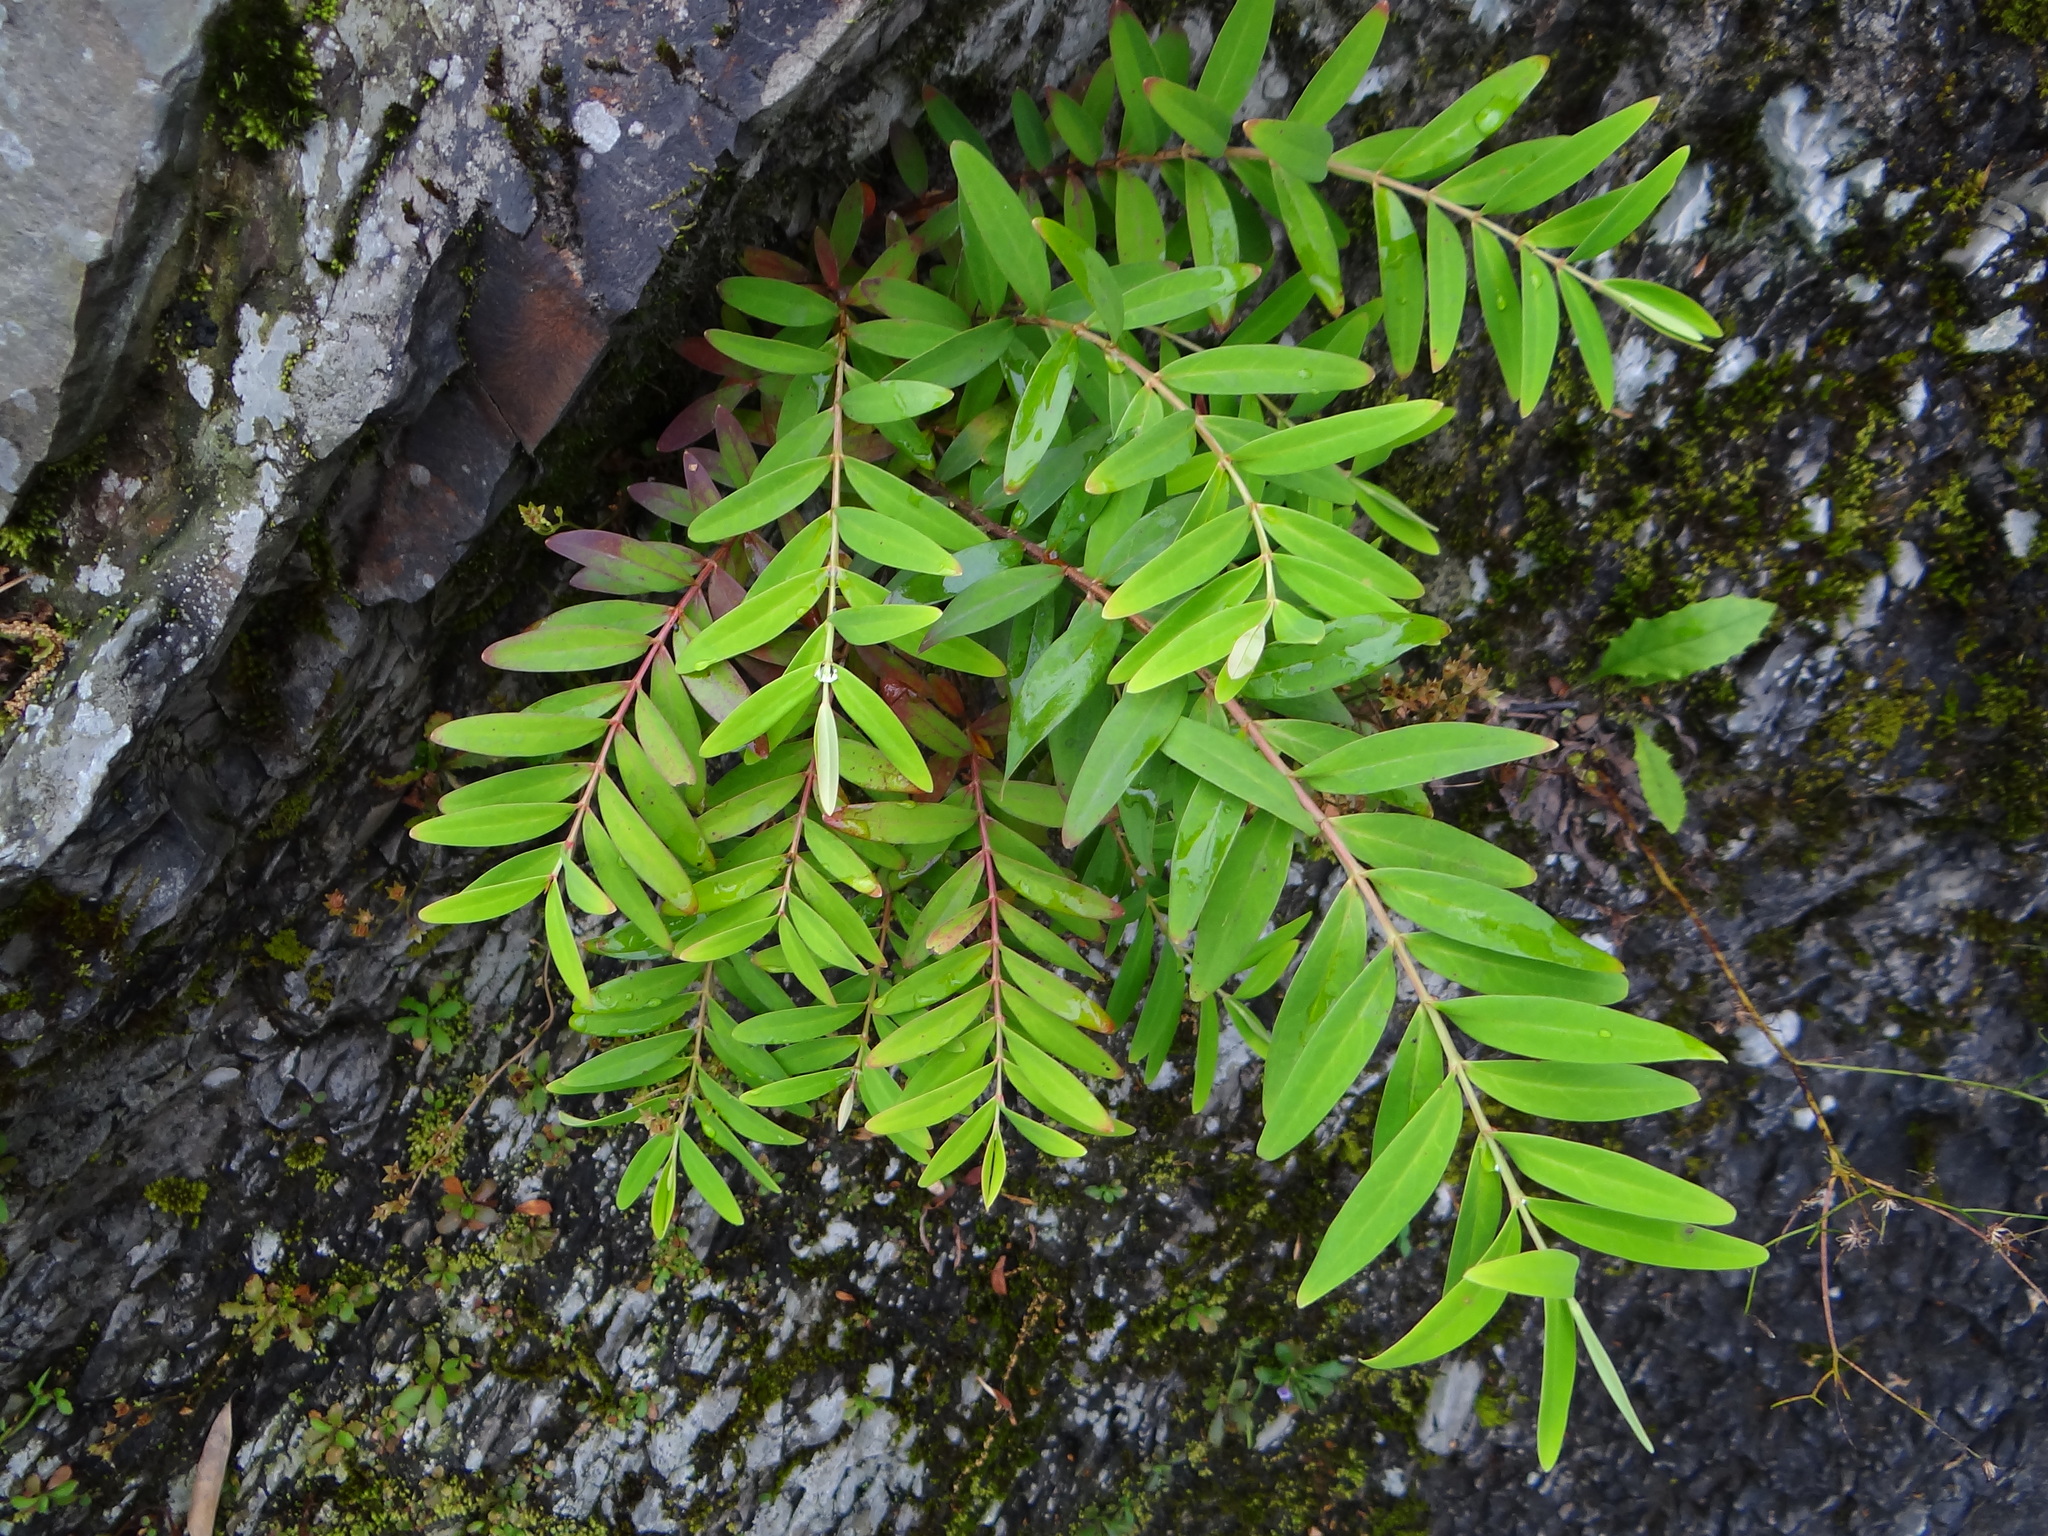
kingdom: Plantae
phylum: Tracheophyta
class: Magnoliopsida
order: Malpighiales
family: Hypericaceae
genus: Hypericum
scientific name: Hypericum subalatum
